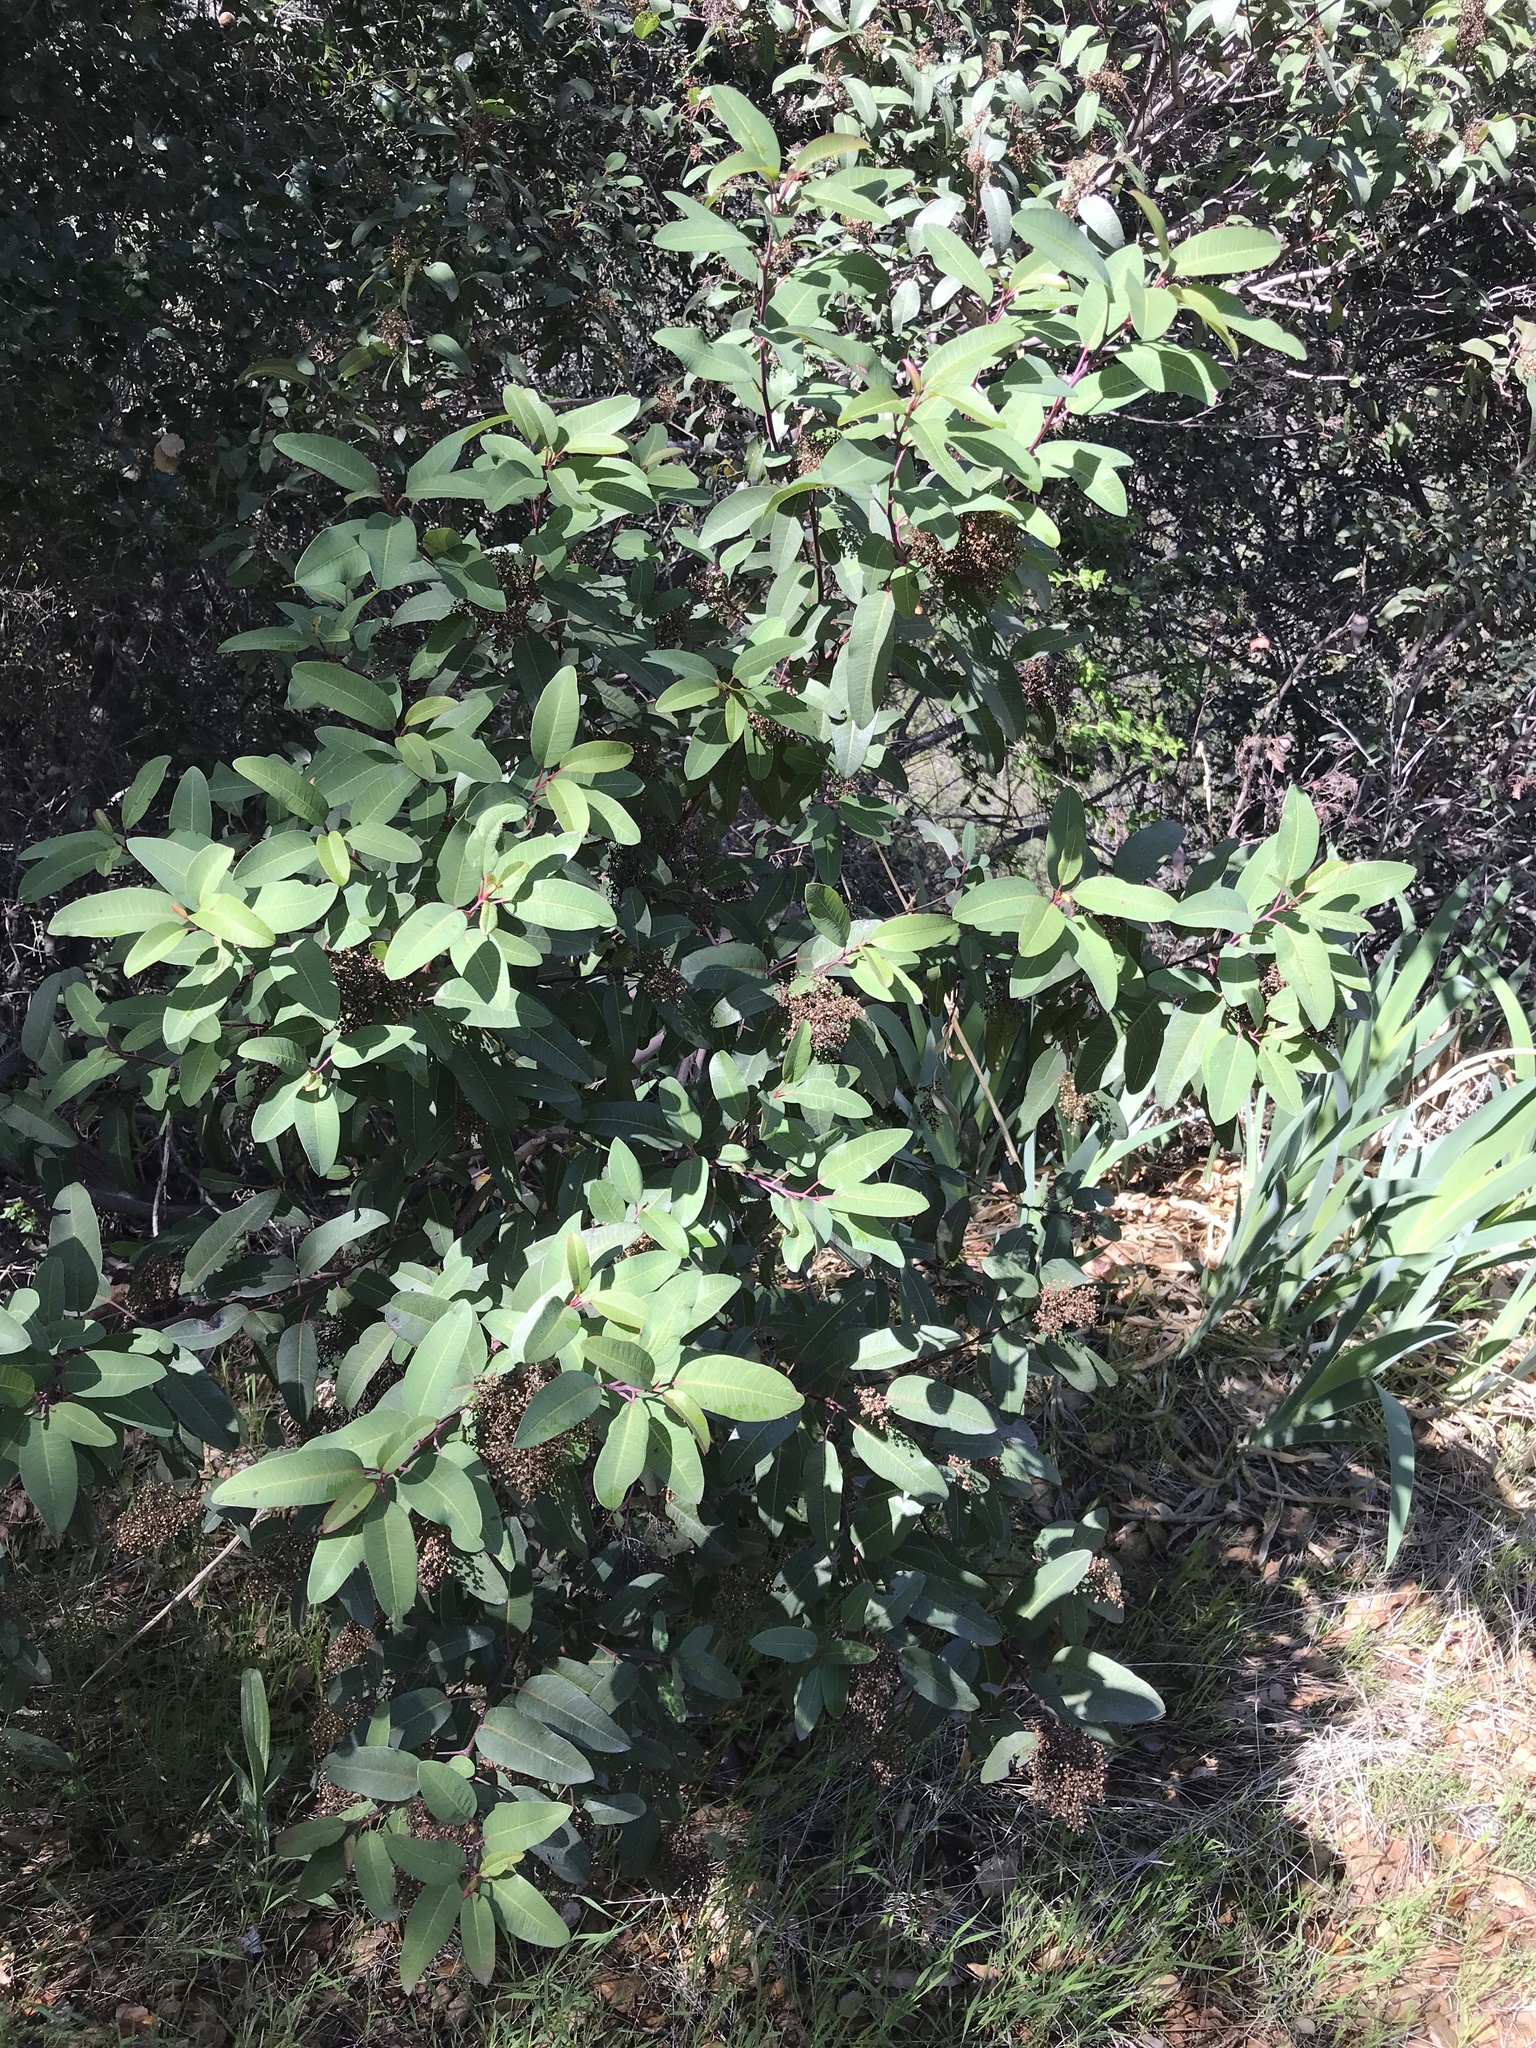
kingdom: Plantae
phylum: Tracheophyta
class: Magnoliopsida
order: Sapindales
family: Anacardiaceae
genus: Malosma
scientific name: Malosma laurina
